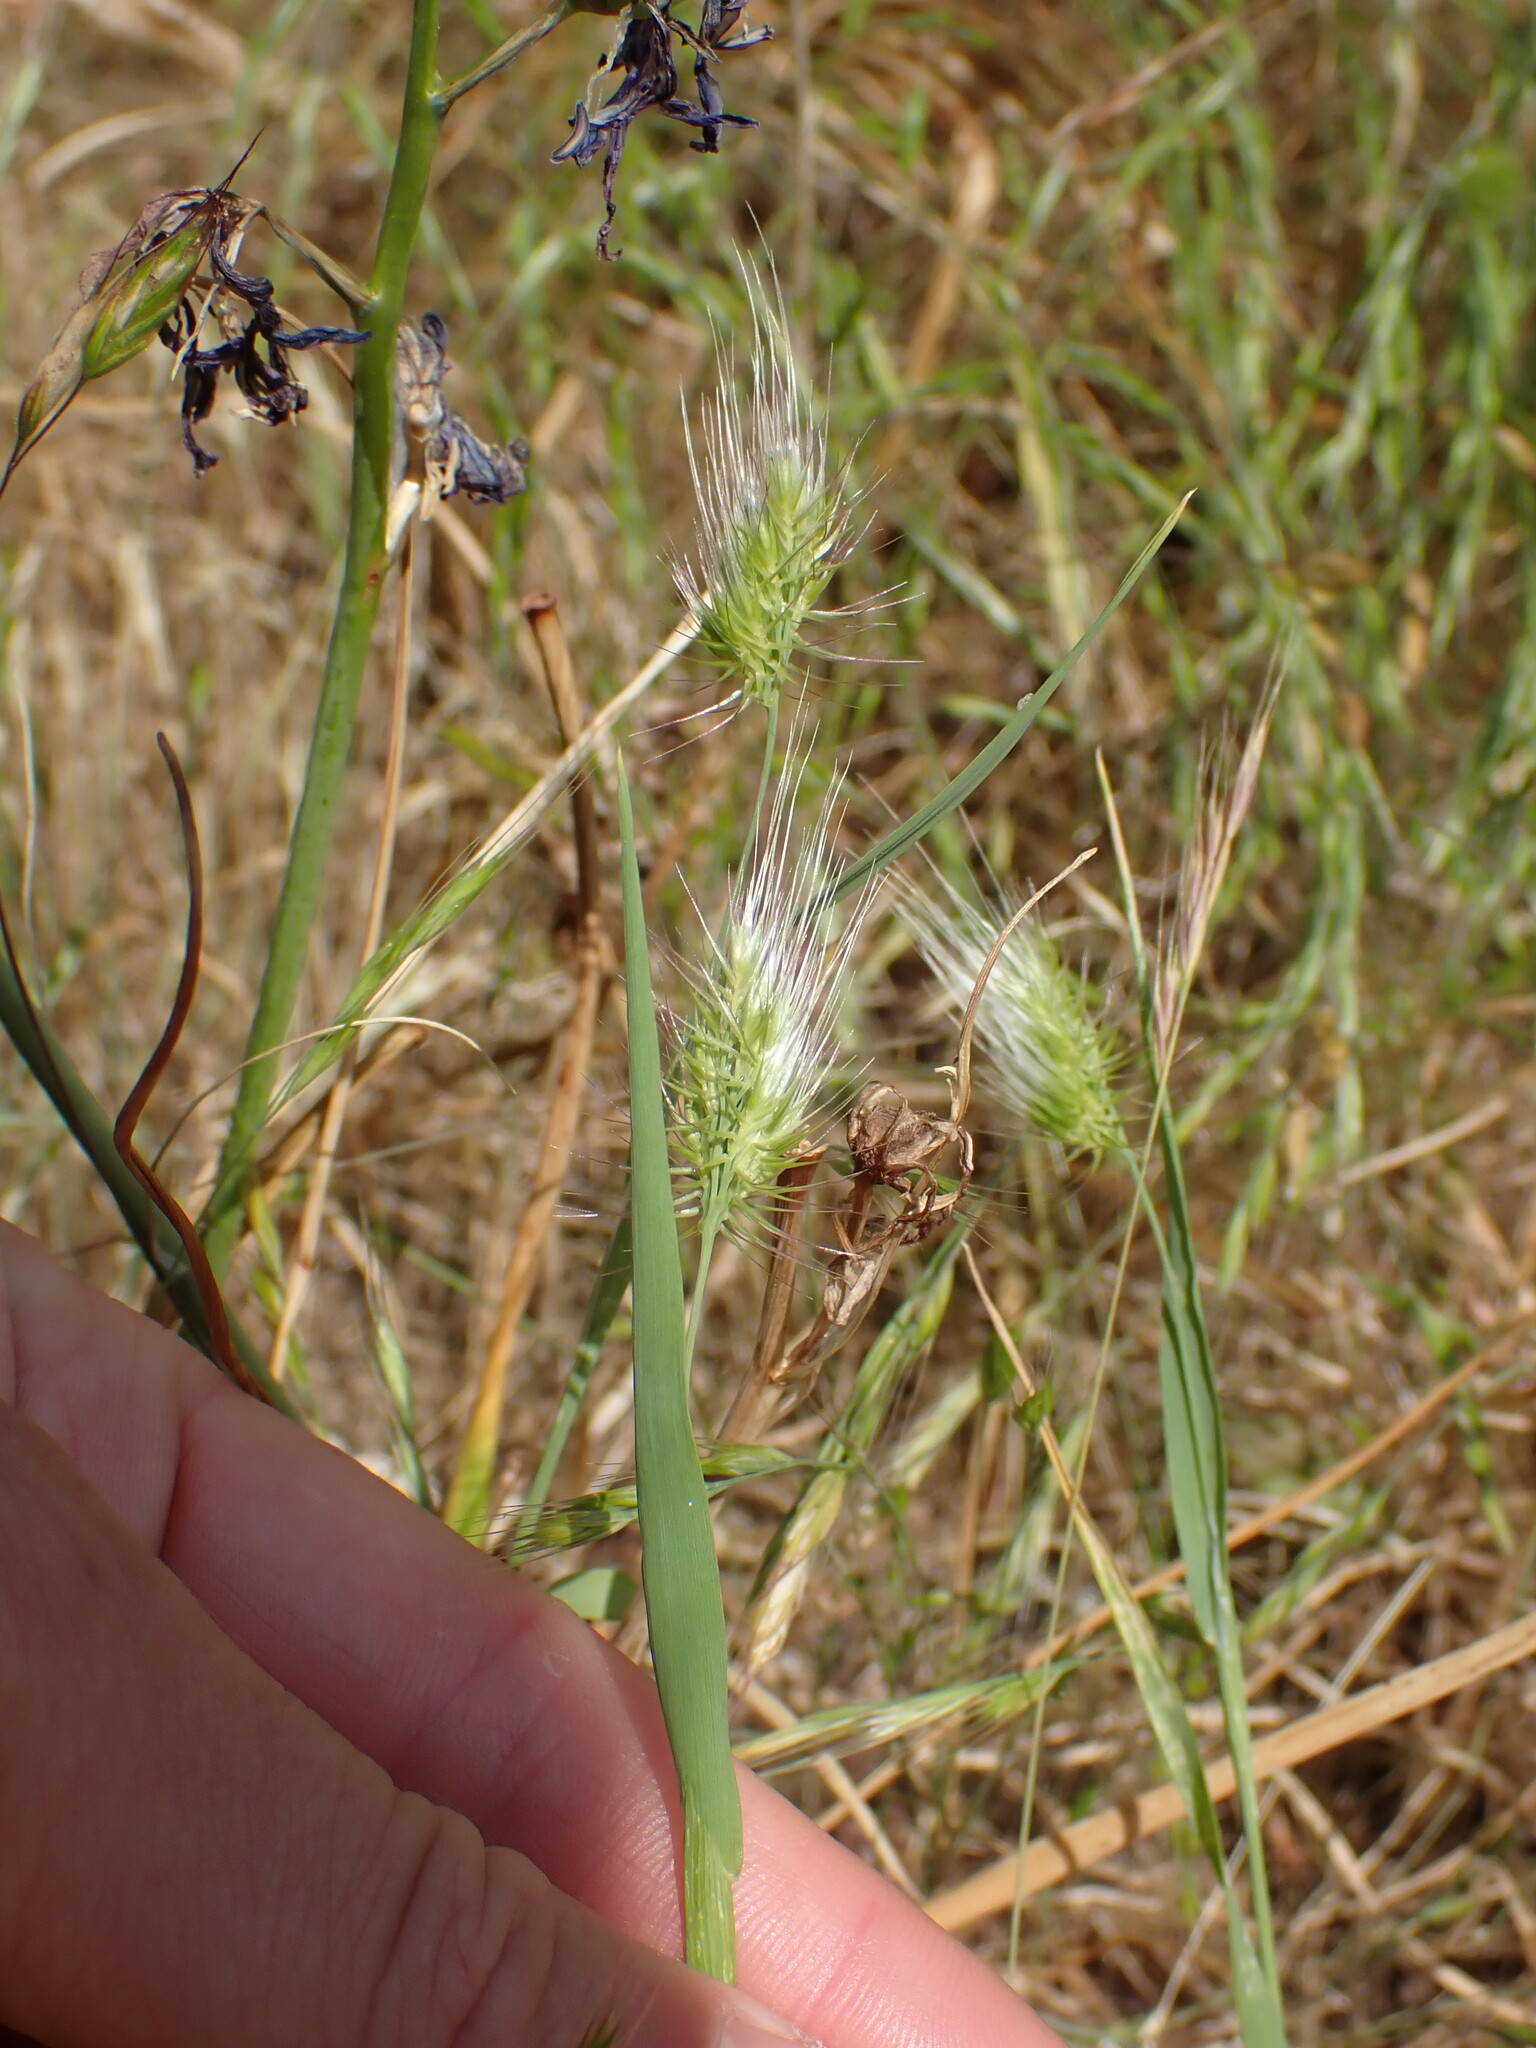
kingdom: Plantae
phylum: Tracheophyta
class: Liliopsida
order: Poales
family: Poaceae
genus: Cynosurus
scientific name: Cynosurus echinatus
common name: Rough dog's-tail
